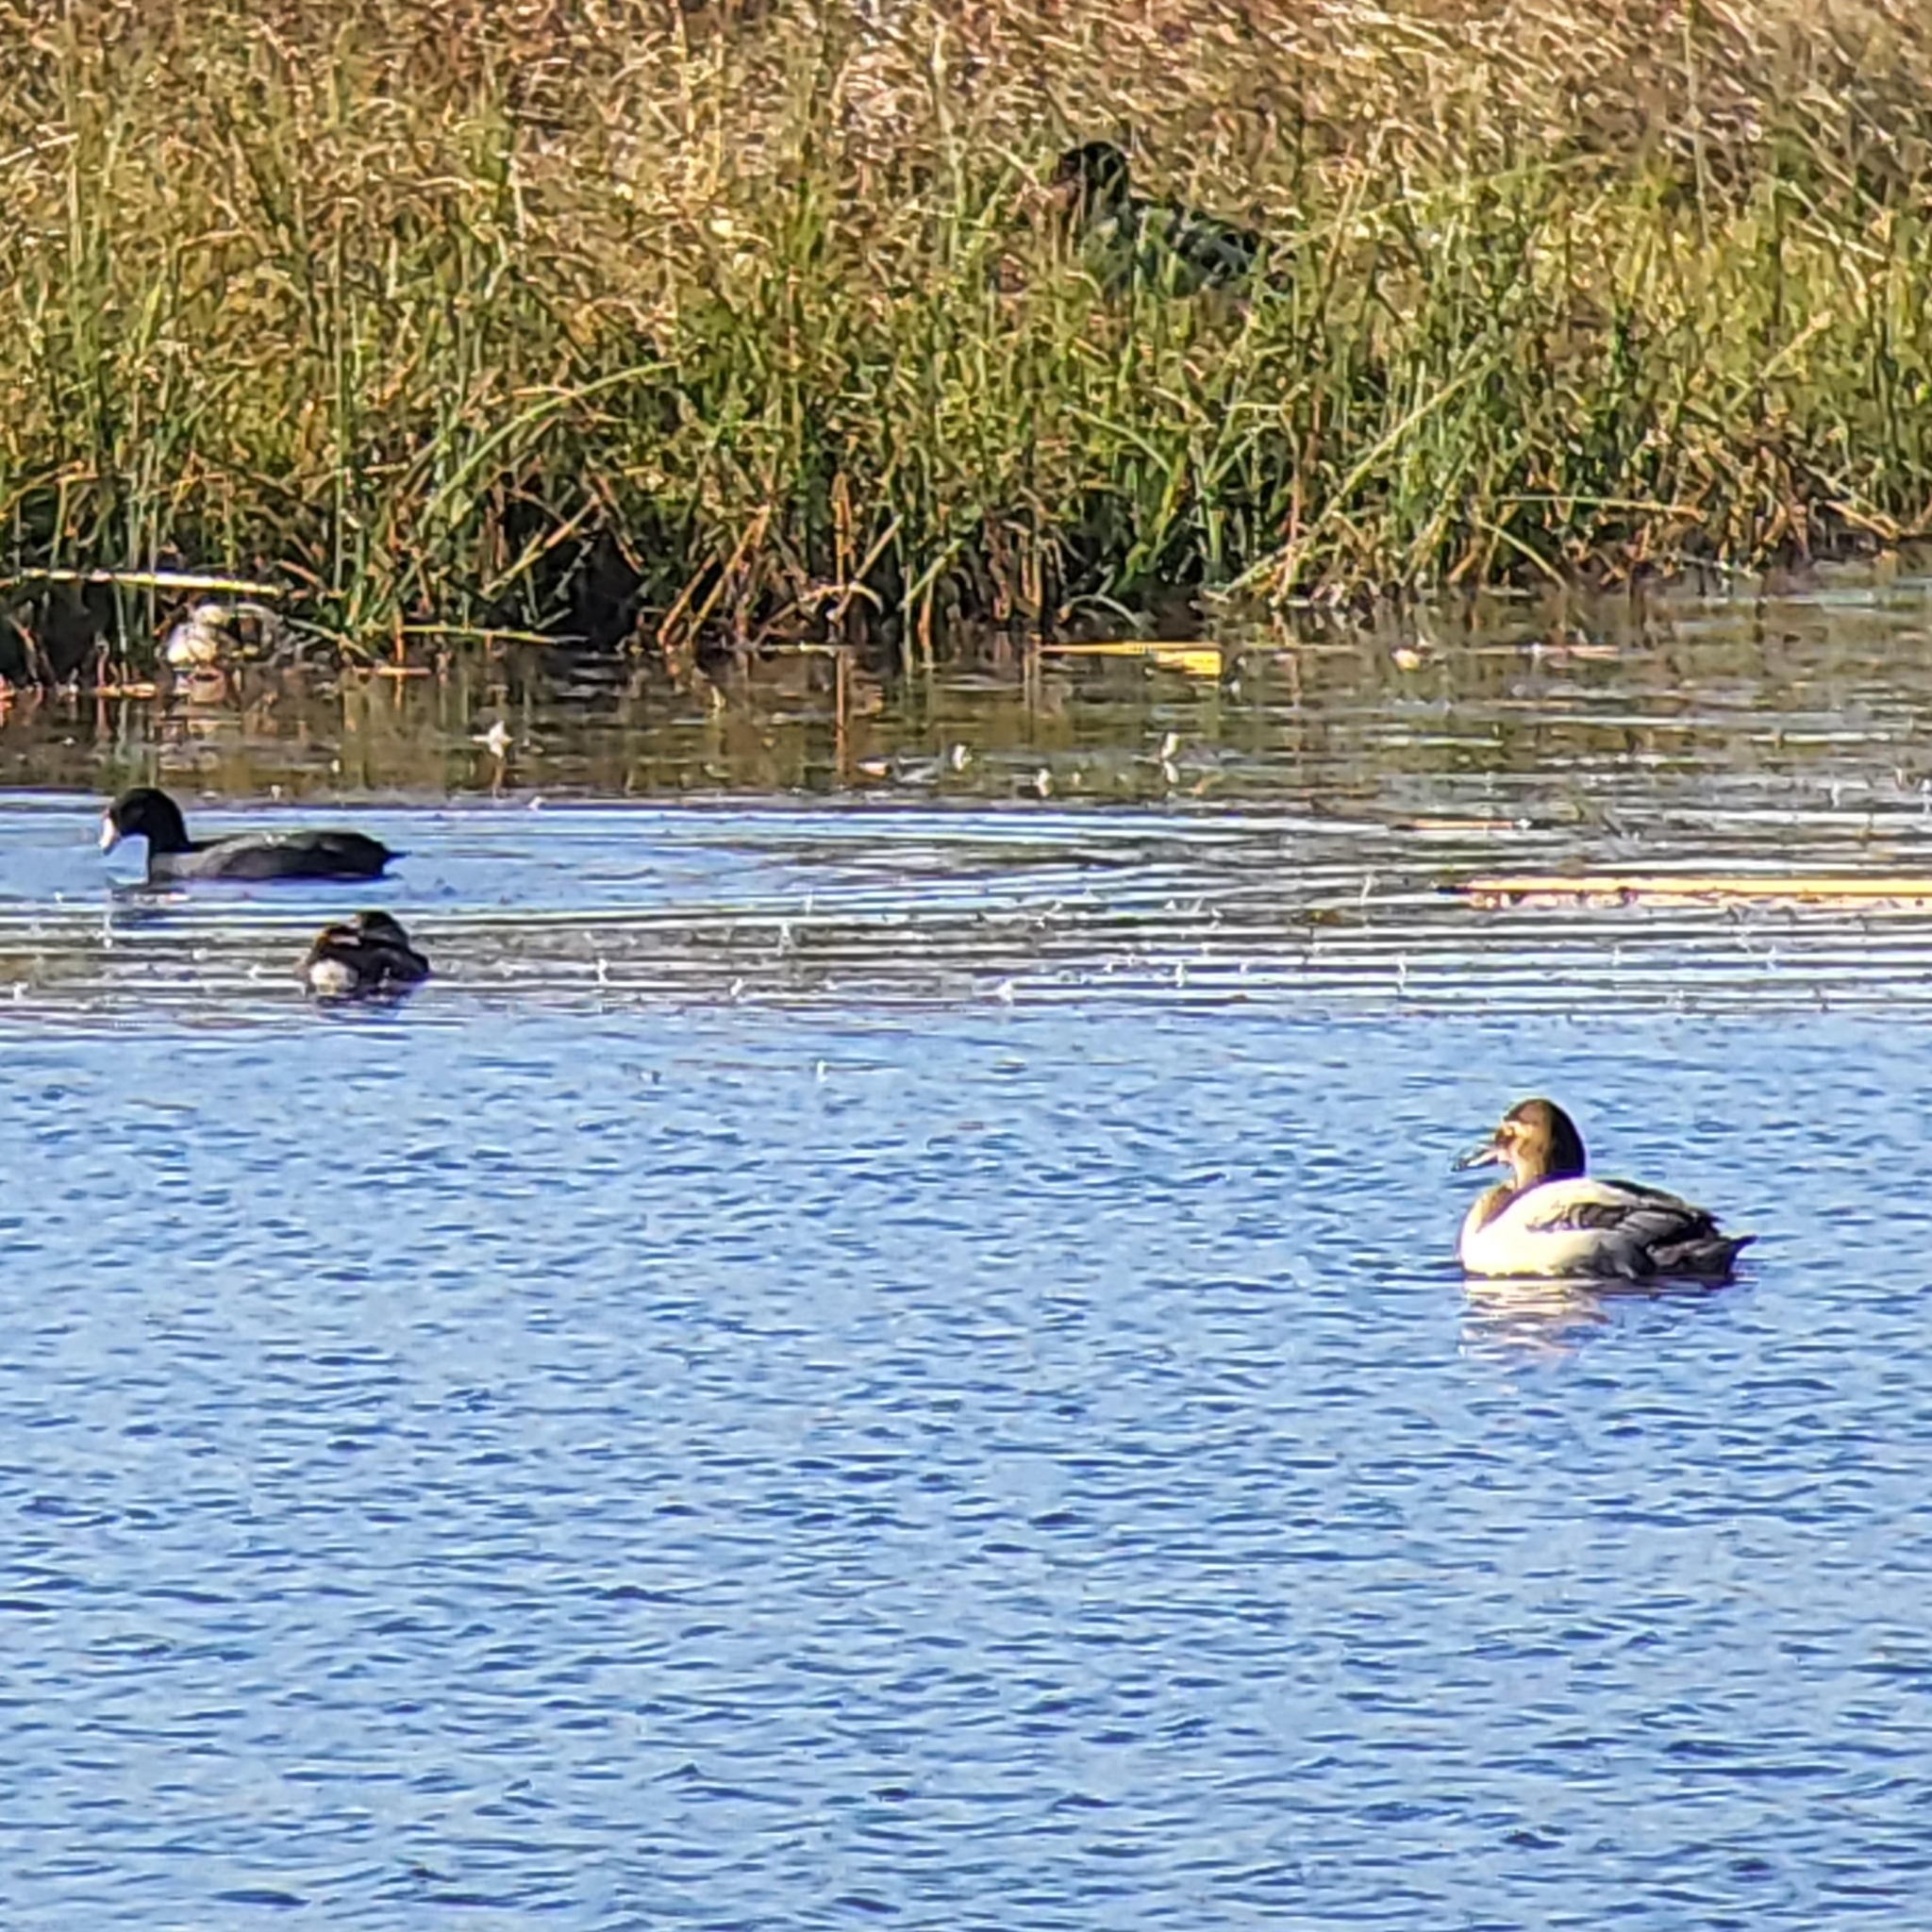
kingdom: Animalia
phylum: Chordata
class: Aves
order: Anseriformes
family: Anatidae
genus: Aythya
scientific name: Aythya valisineria
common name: Canvasback
